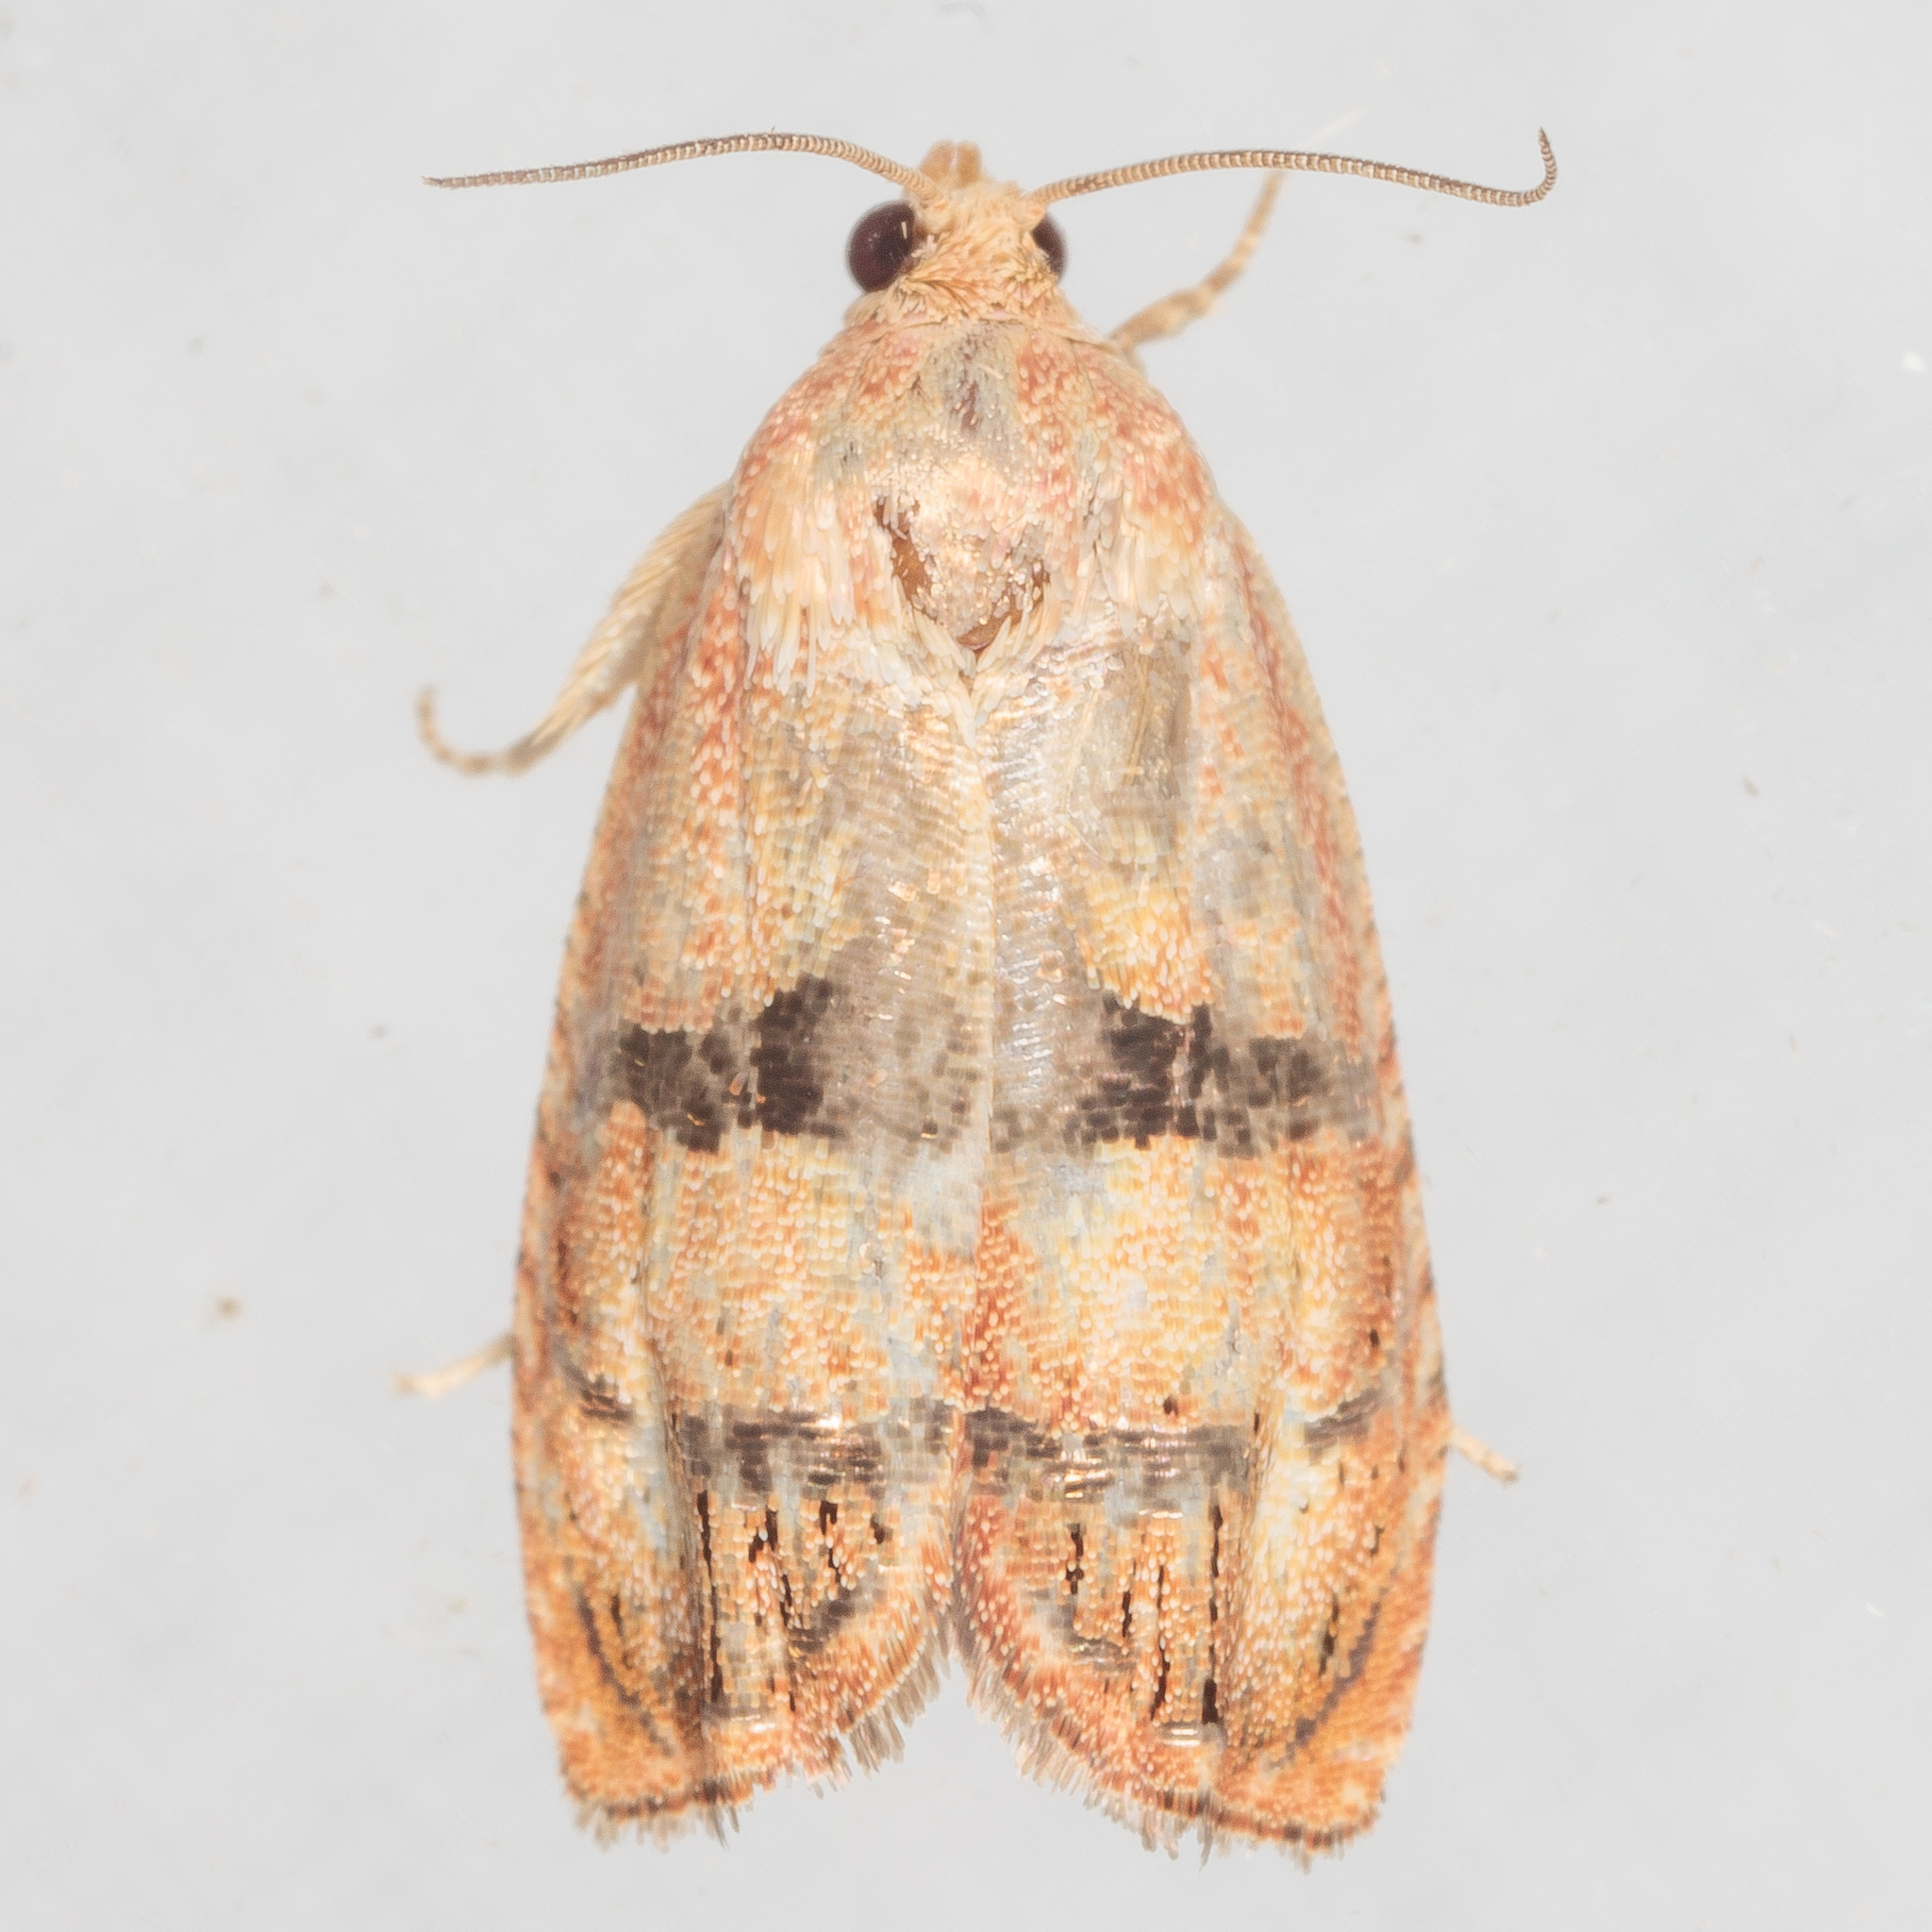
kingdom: Animalia
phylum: Arthropoda
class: Insecta
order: Lepidoptera
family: Tortricidae
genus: Cydia
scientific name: Cydia latiferreana
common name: Filbertworm moth
